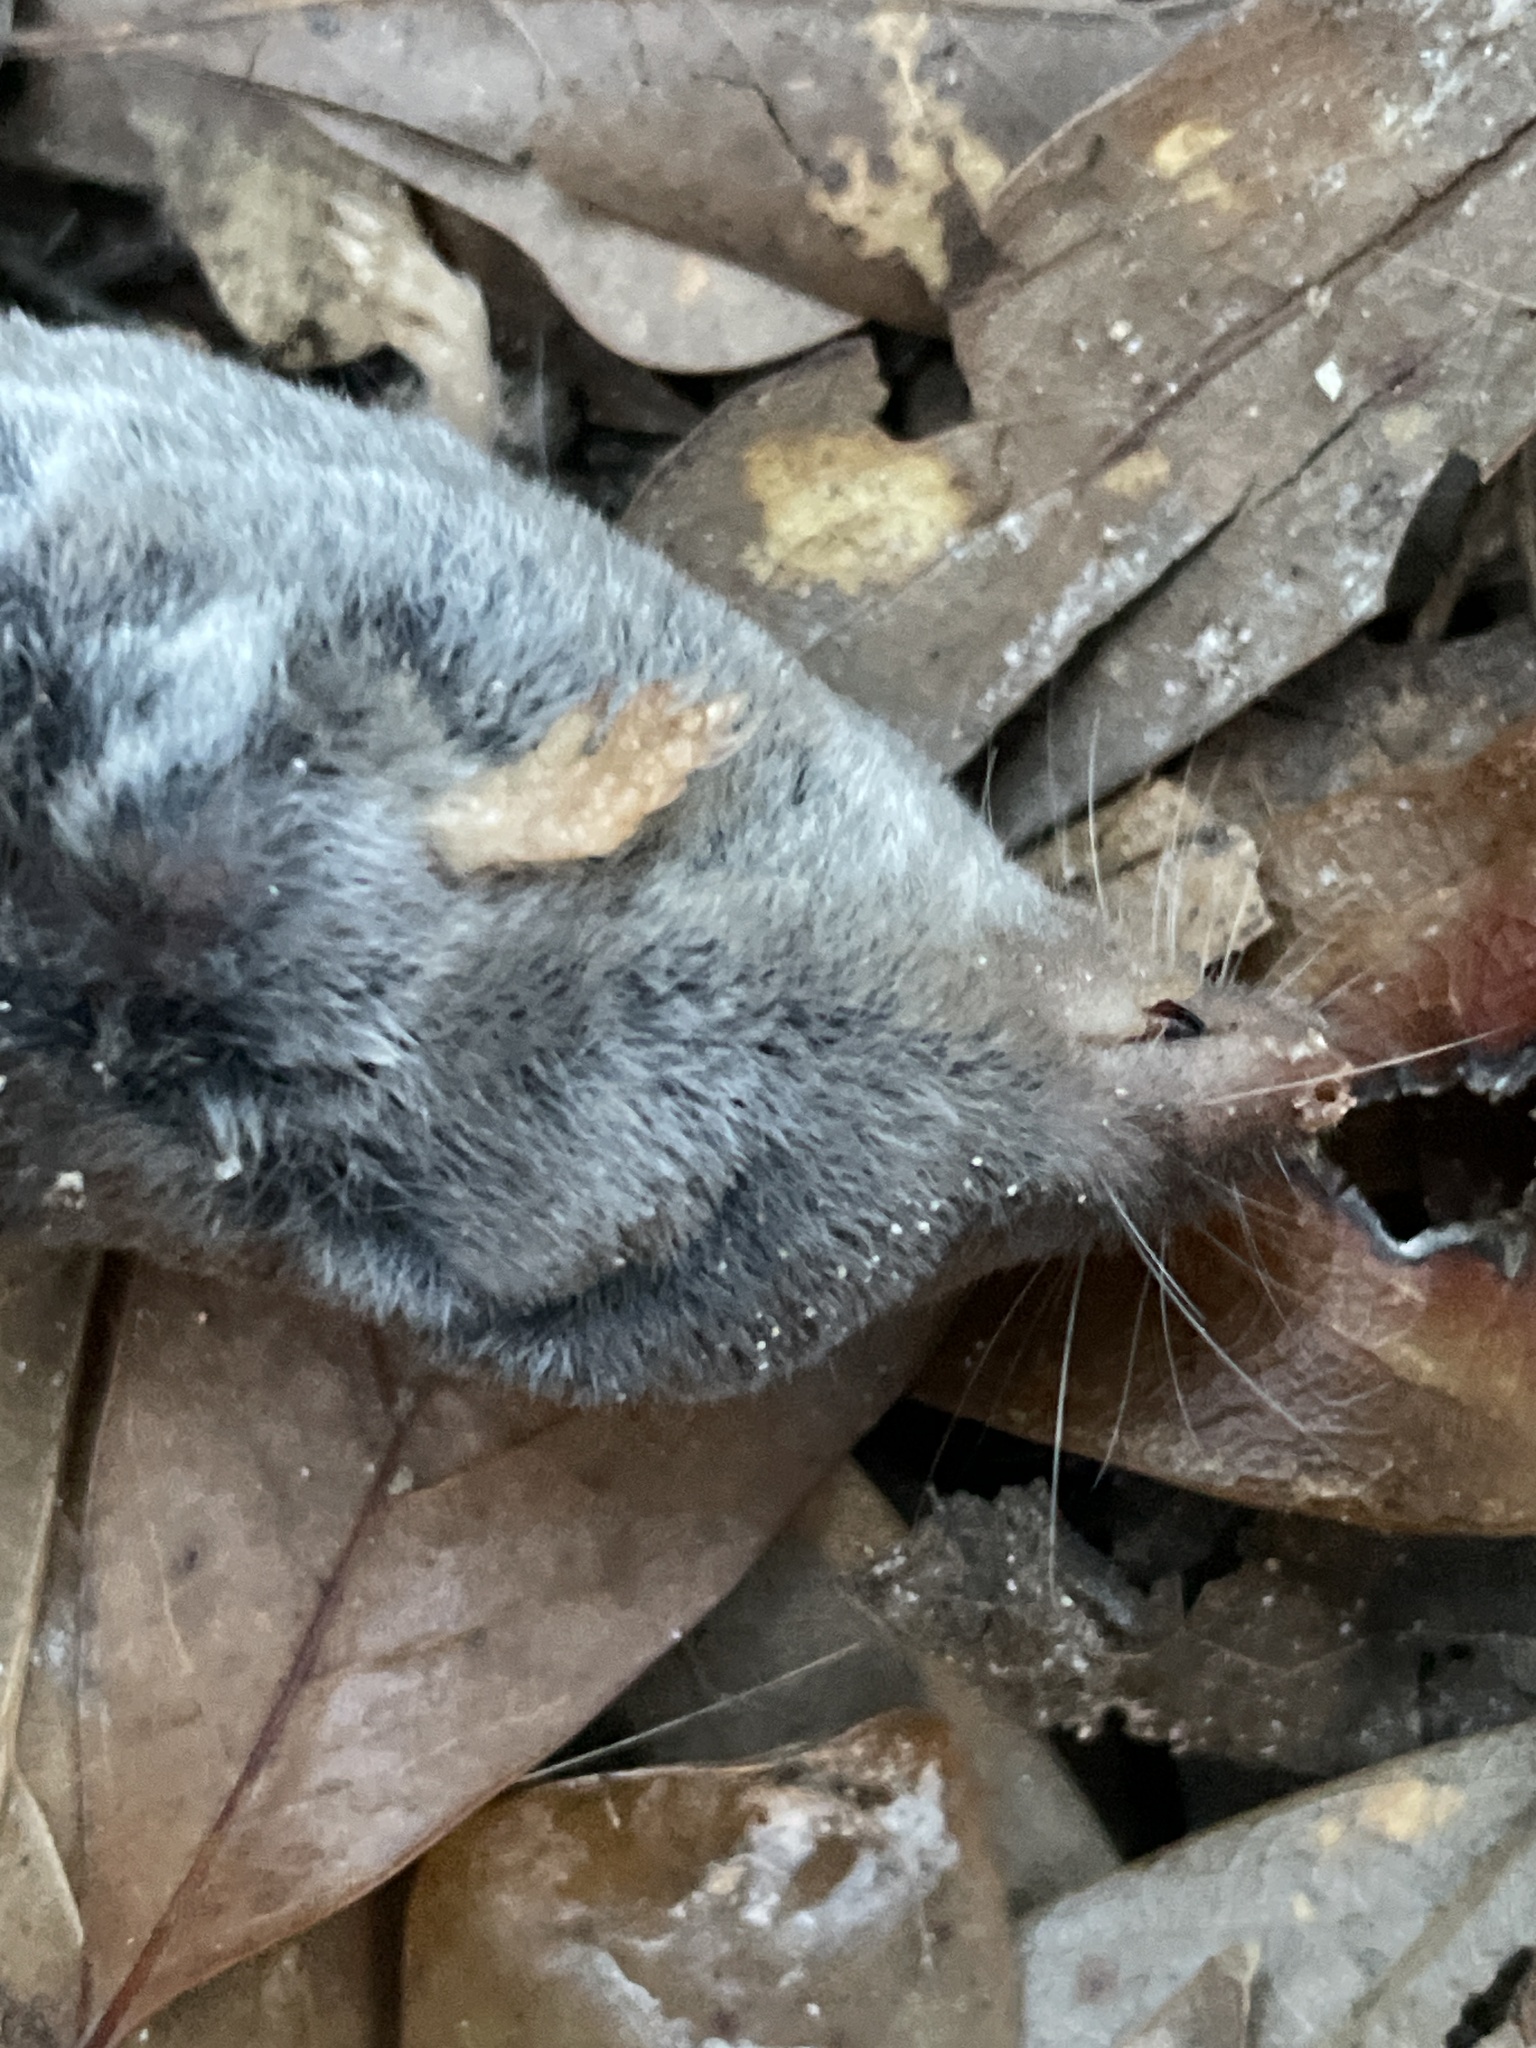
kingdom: Animalia
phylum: Chordata
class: Mammalia
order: Soricomorpha
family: Soricidae
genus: Blarina
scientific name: Blarina carolinensis
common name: Southern short-tailed shrew
